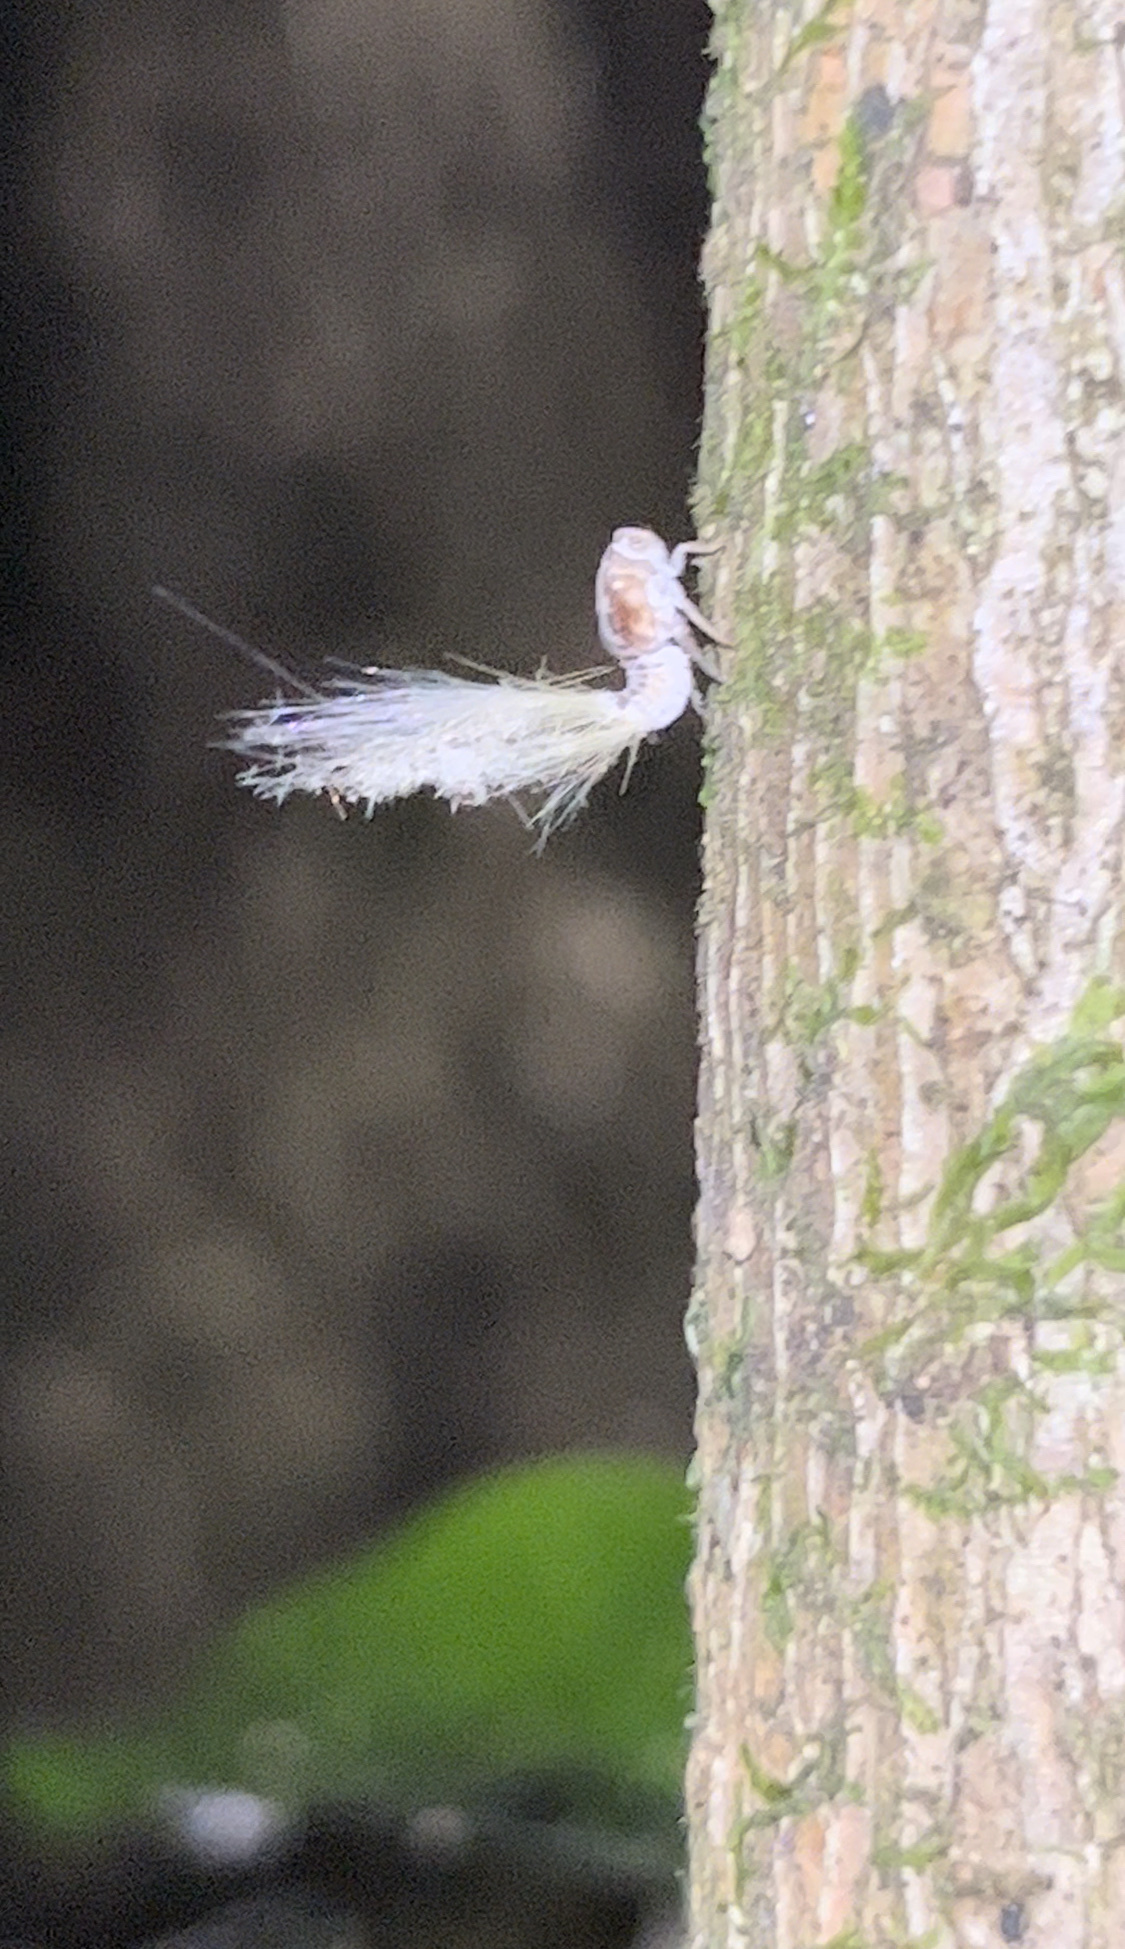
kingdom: Animalia
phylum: Arthropoda
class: Insecta
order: Hemiptera
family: Ricaniidae
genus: Scolypopa
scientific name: Scolypopa australis
